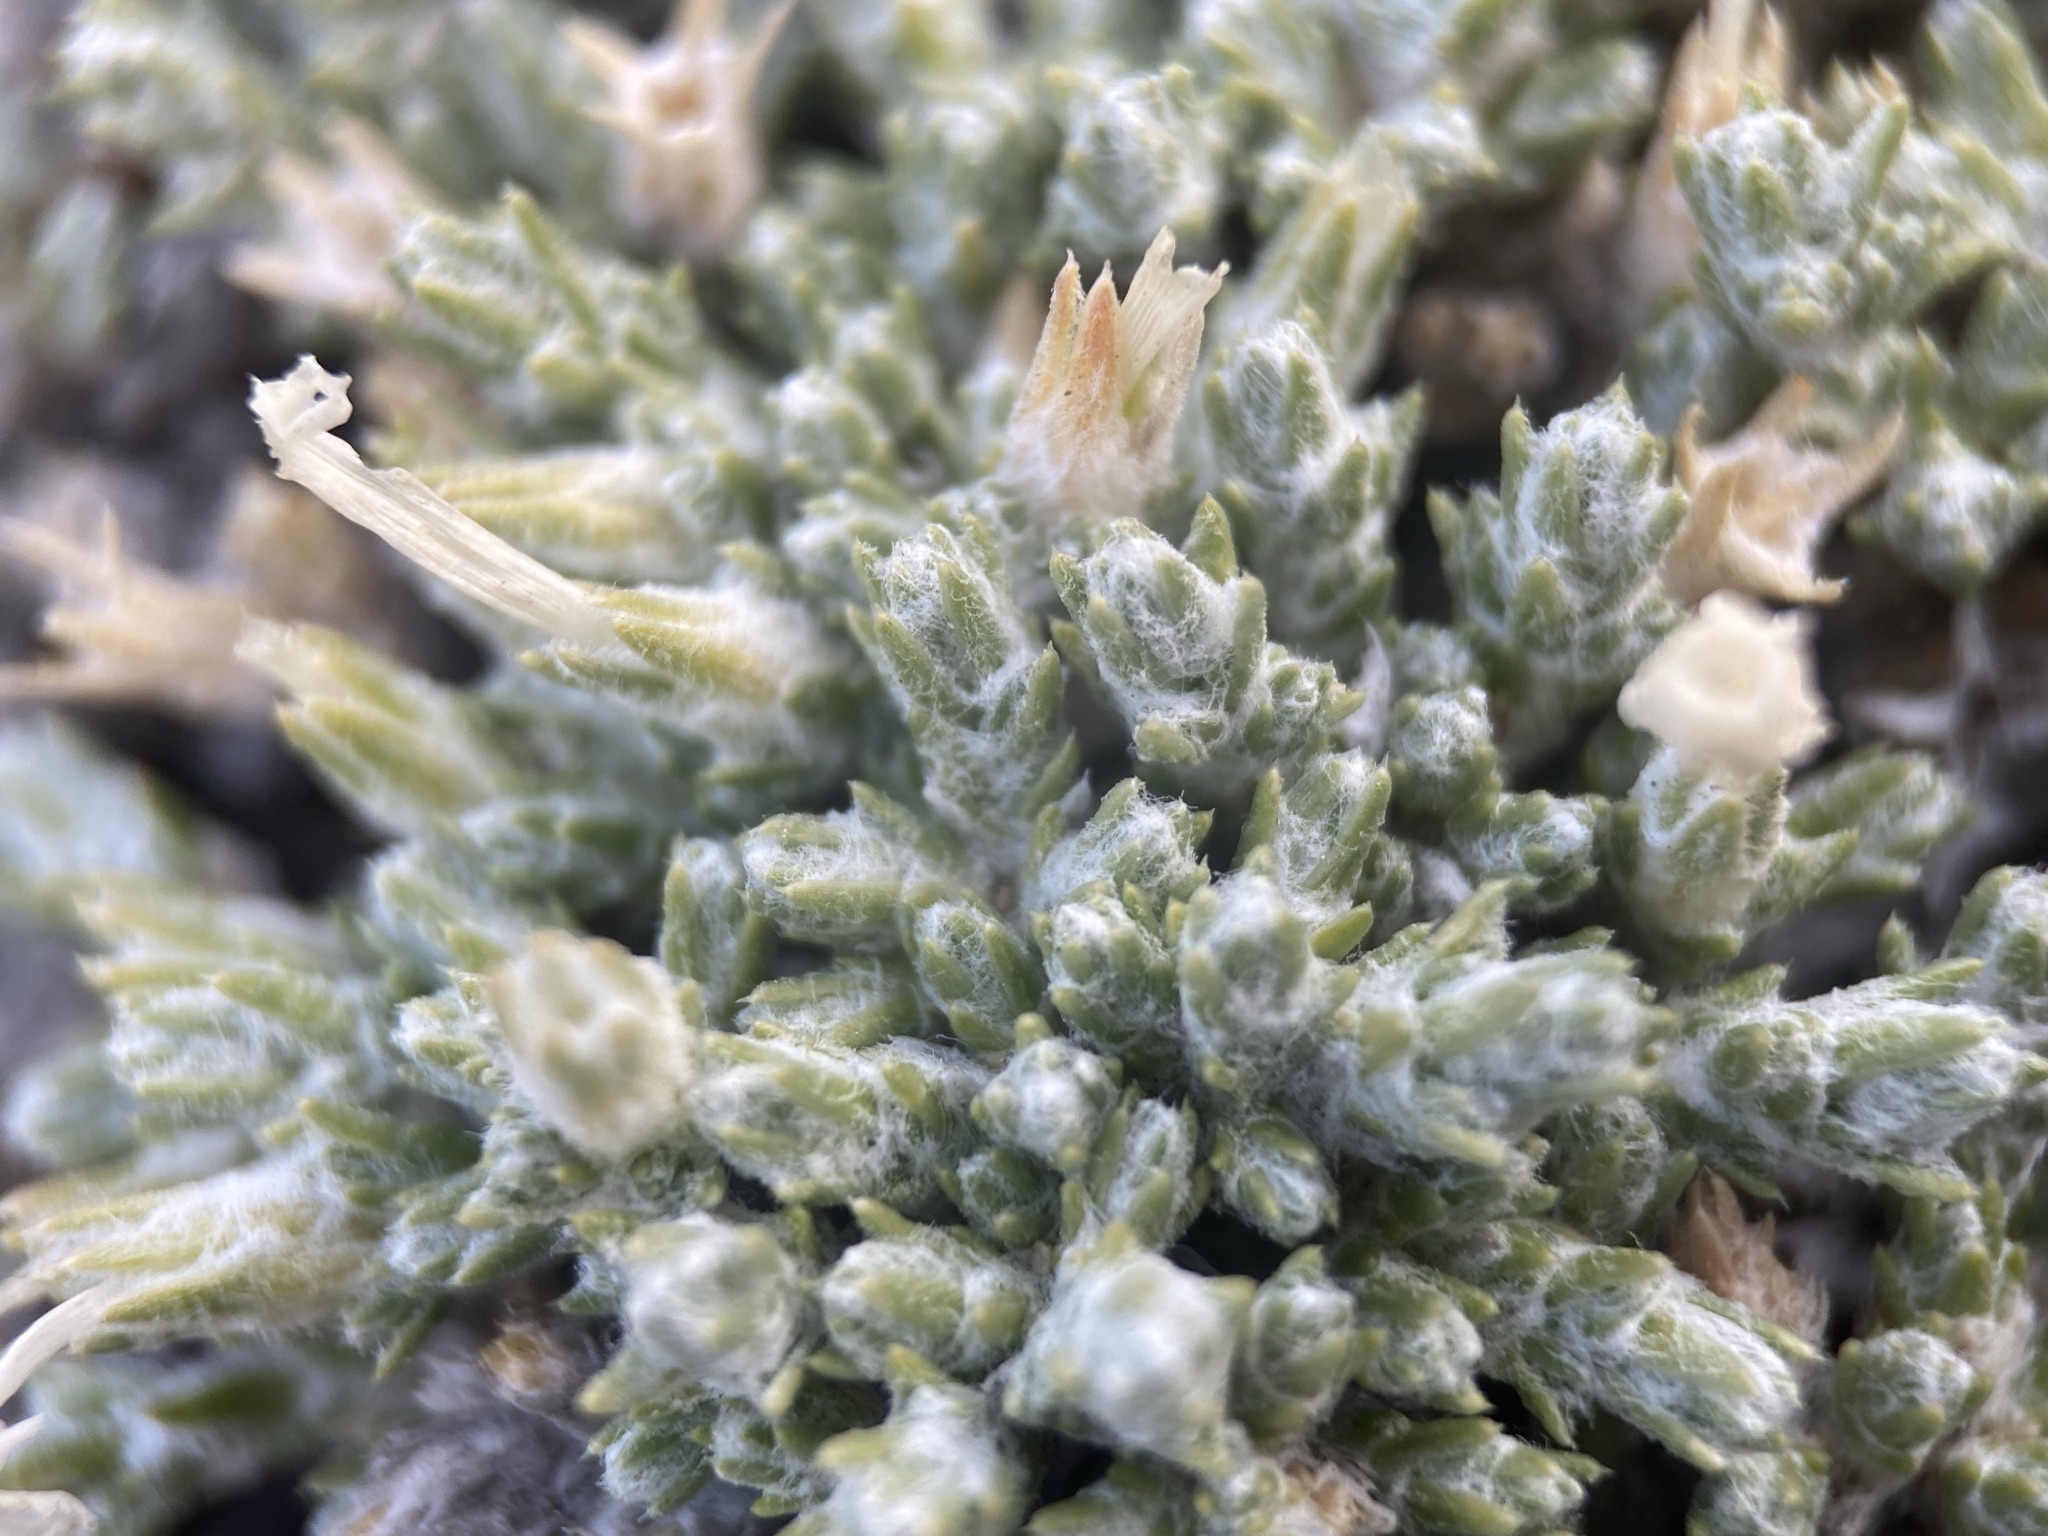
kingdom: Plantae
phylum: Tracheophyta
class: Magnoliopsida
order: Ericales
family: Polemoniaceae
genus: Phlox
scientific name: Phlox hoodii
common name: Moss phlox
